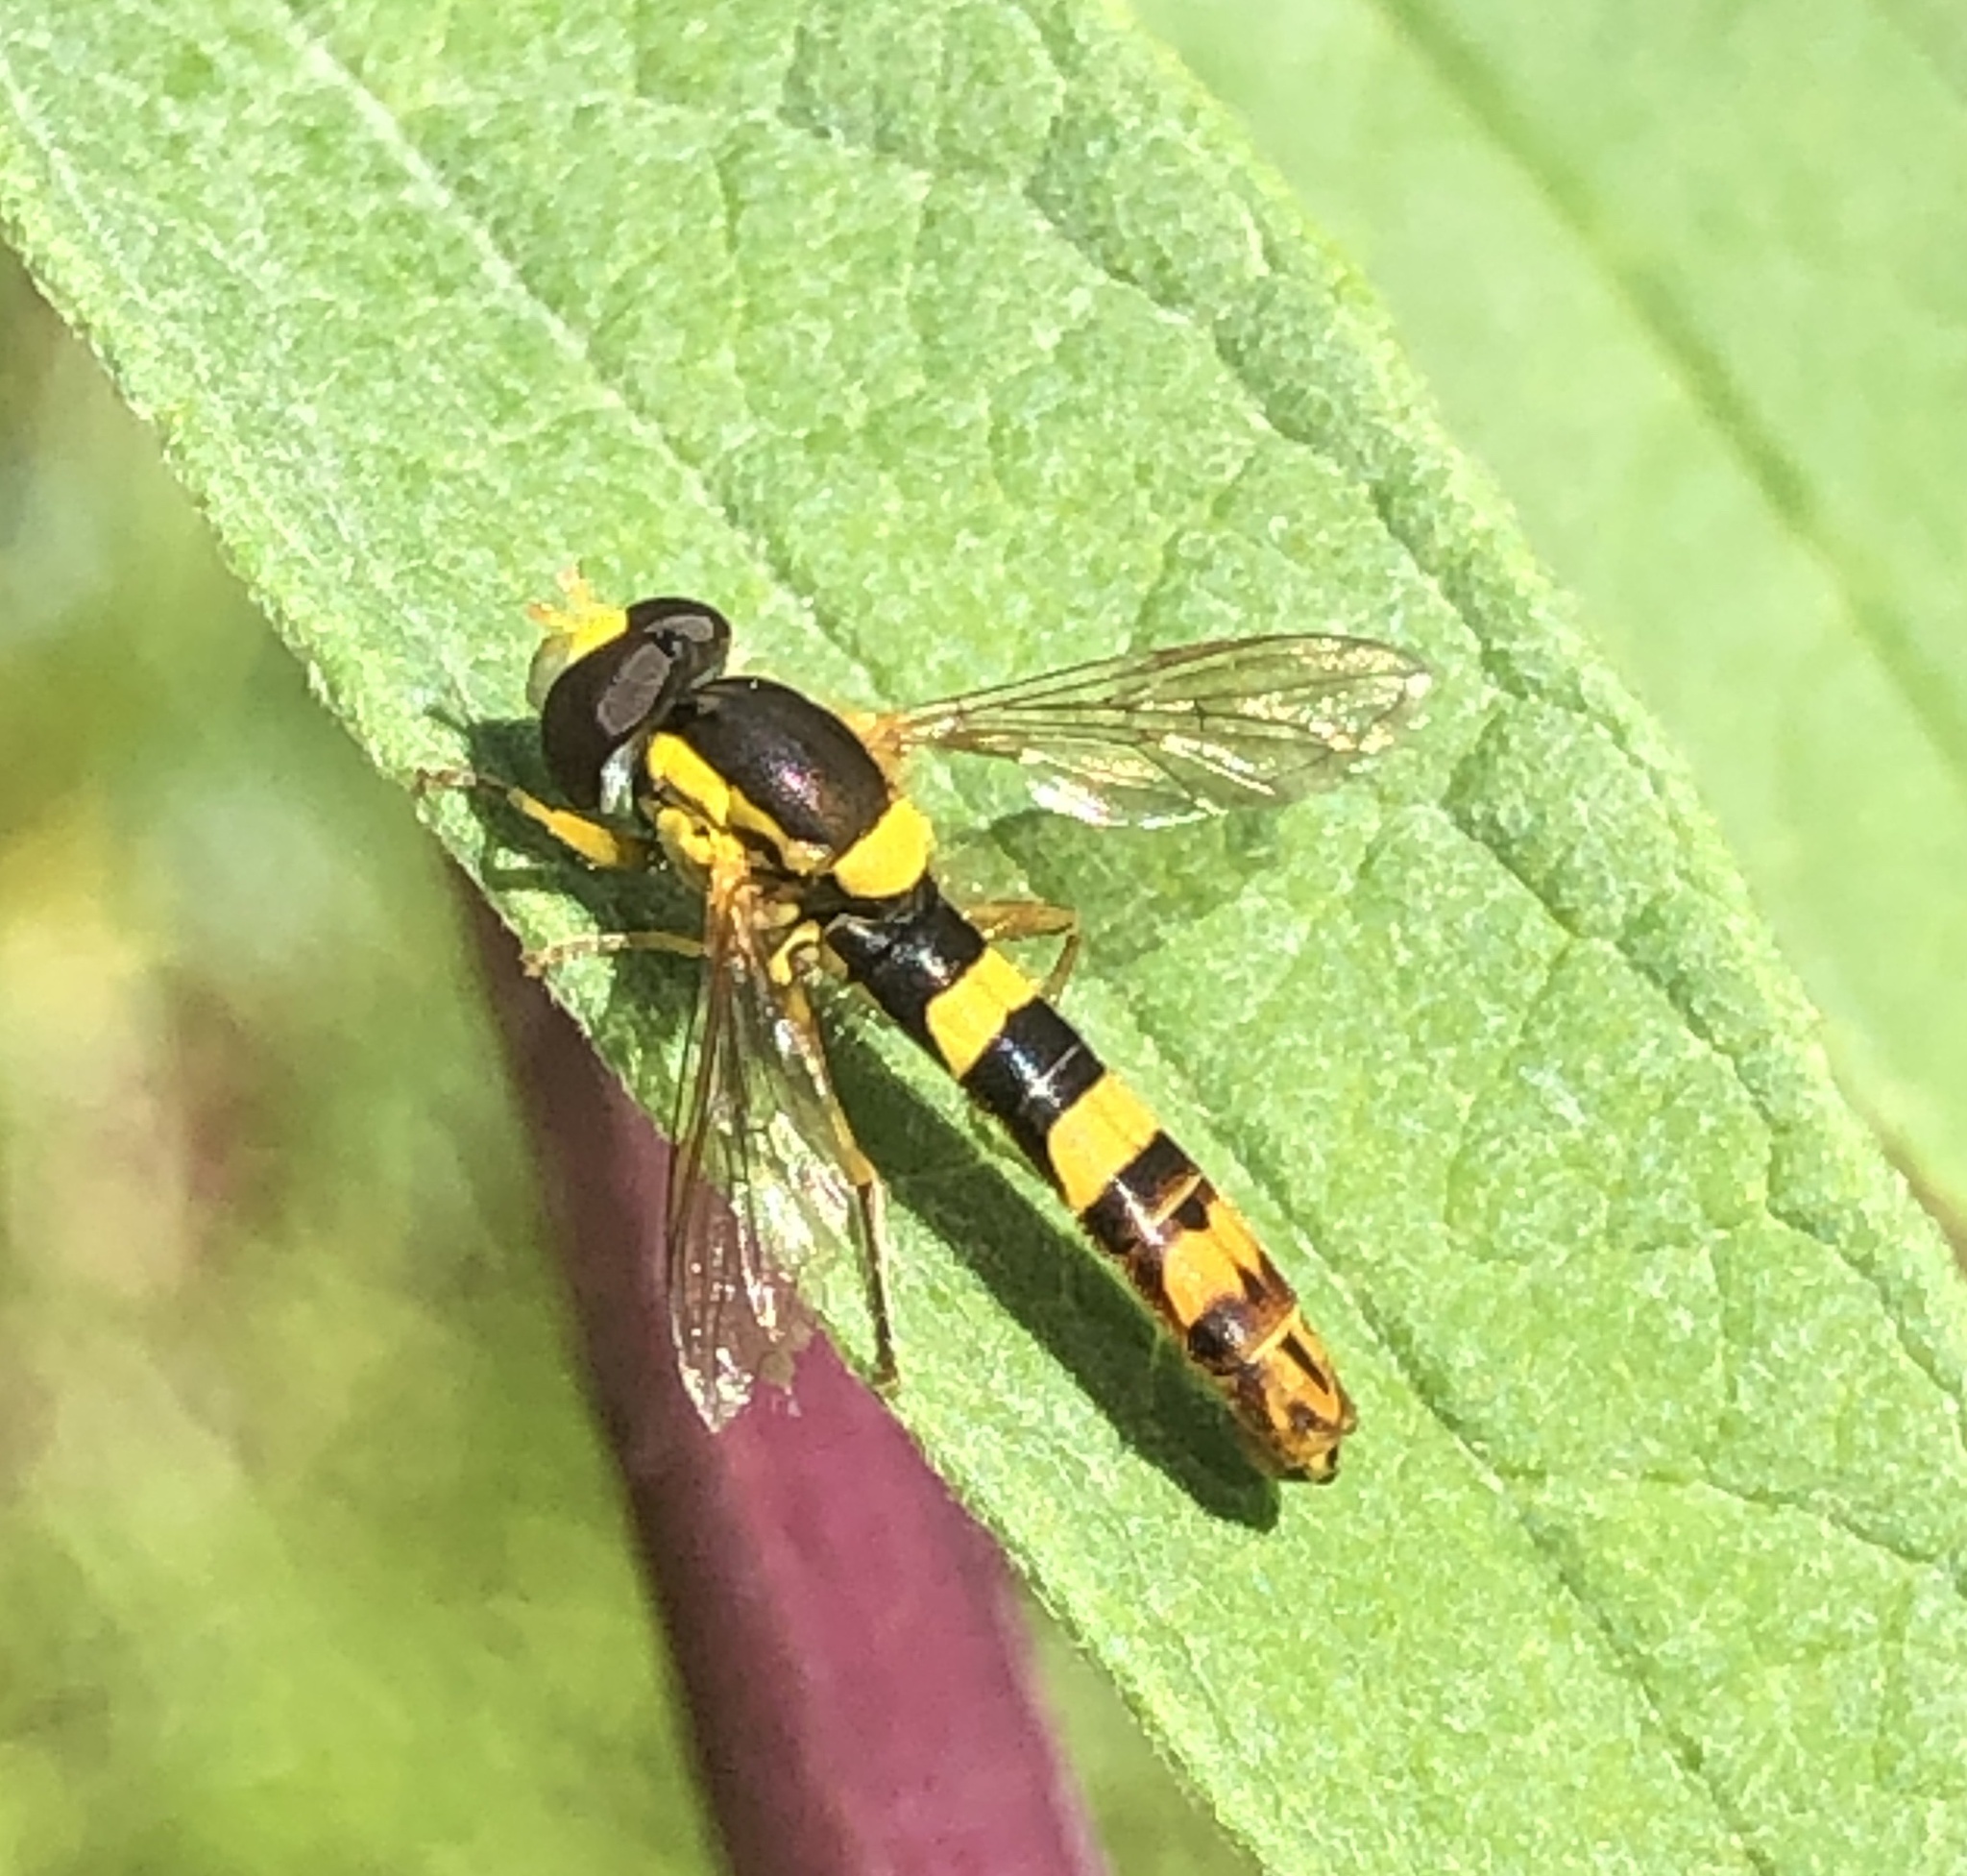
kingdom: Animalia
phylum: Arthropoda
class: Insecta
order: Diptera
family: Syrphidae
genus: Sphaerophoria
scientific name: Sphaerophoria scripta
